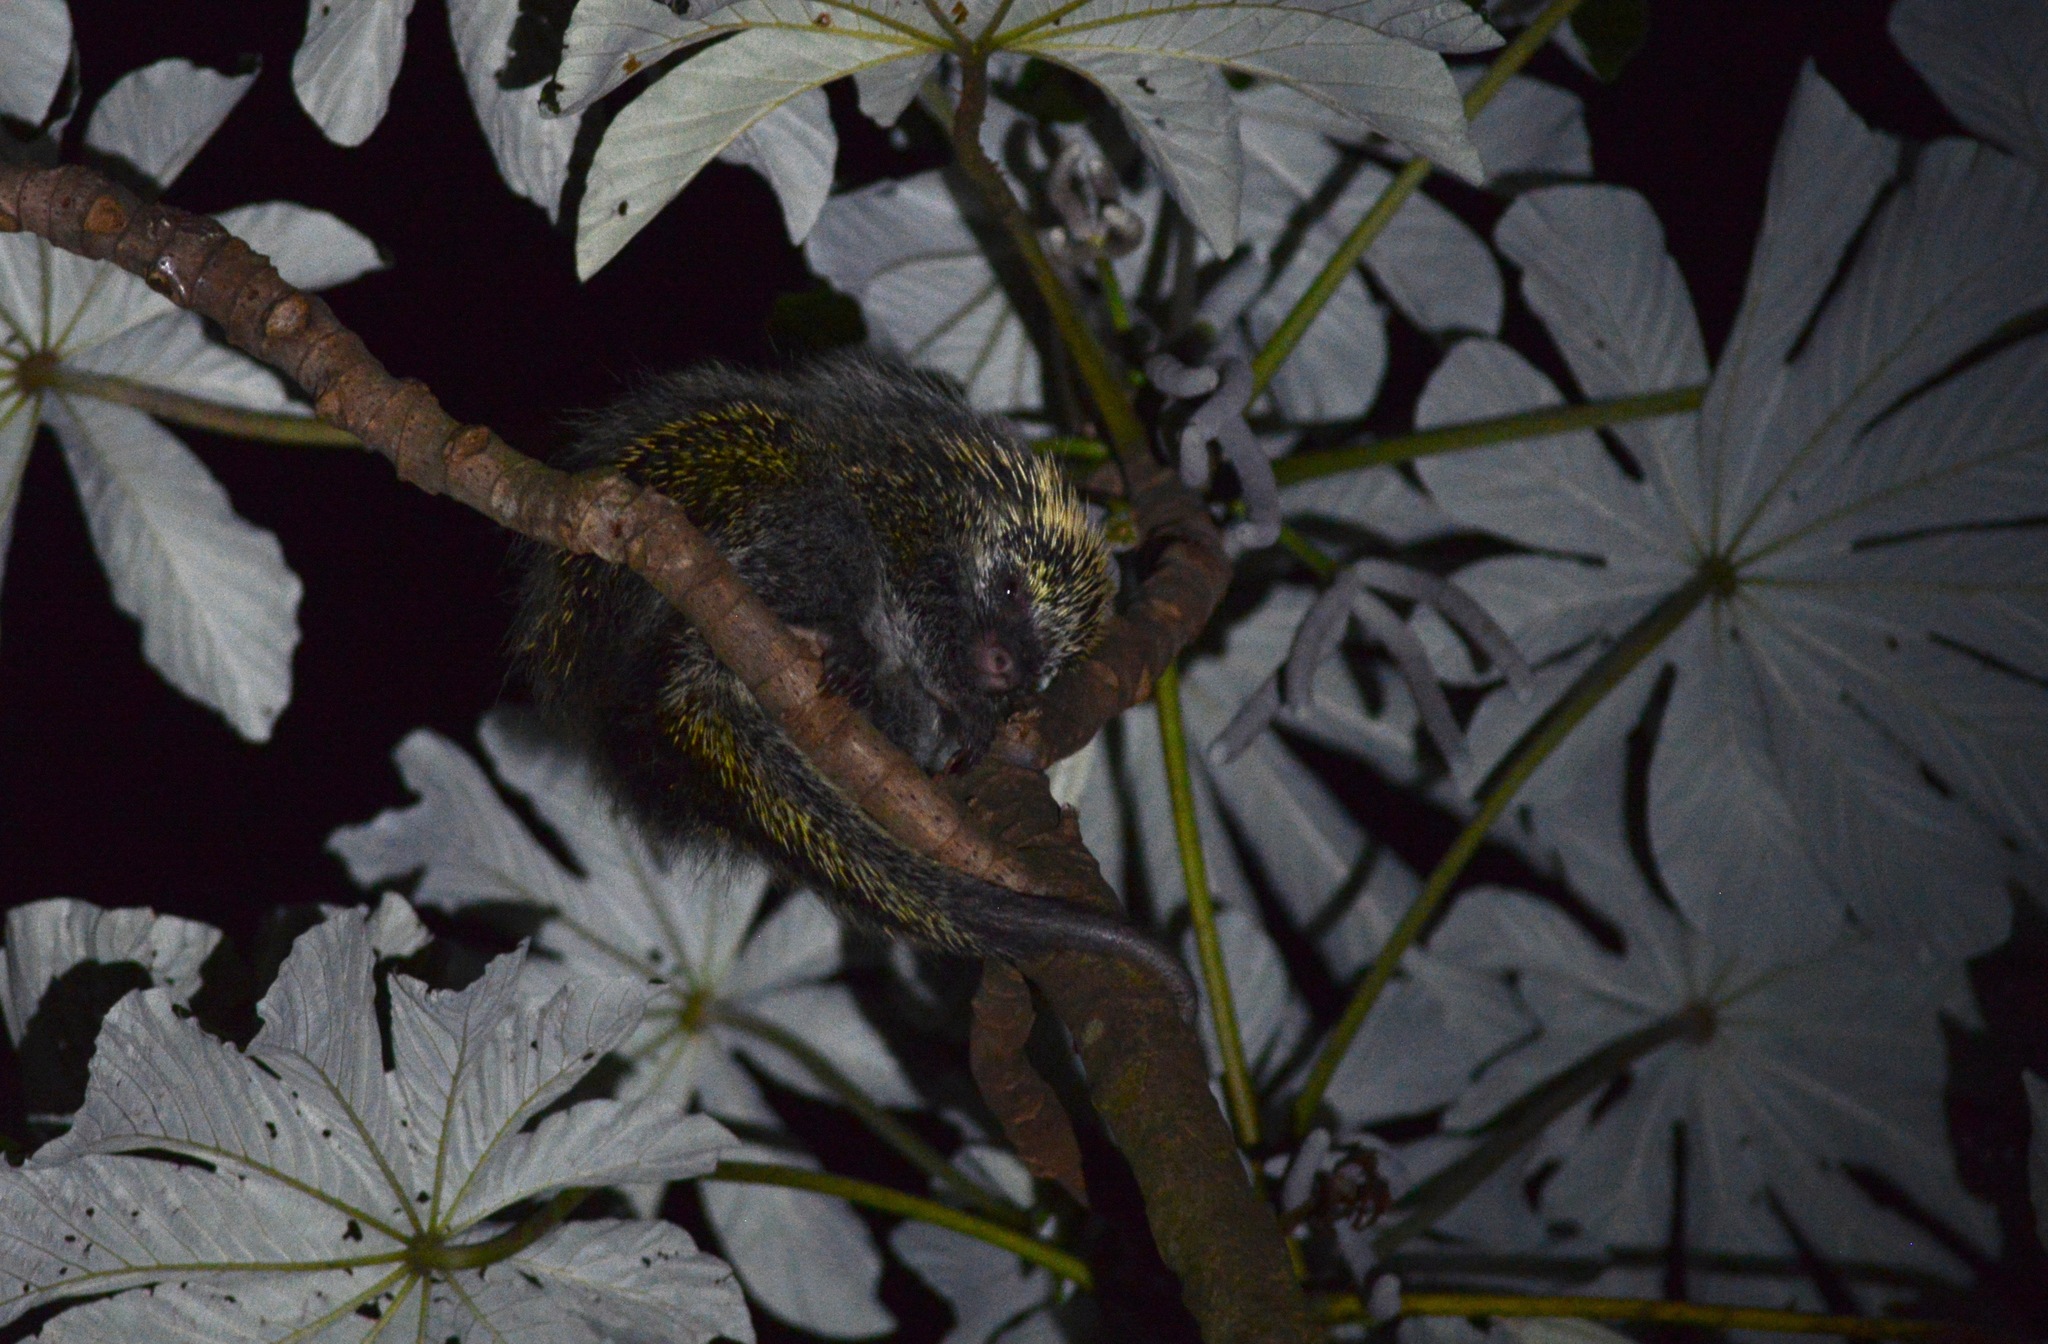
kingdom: Animalia
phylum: Chordata
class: Mammalia
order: Rodentia
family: Erethizontidae
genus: Sphiggurus
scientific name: Sphiggurus spinosus
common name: Paraguaian hairy dwarf porcupine
